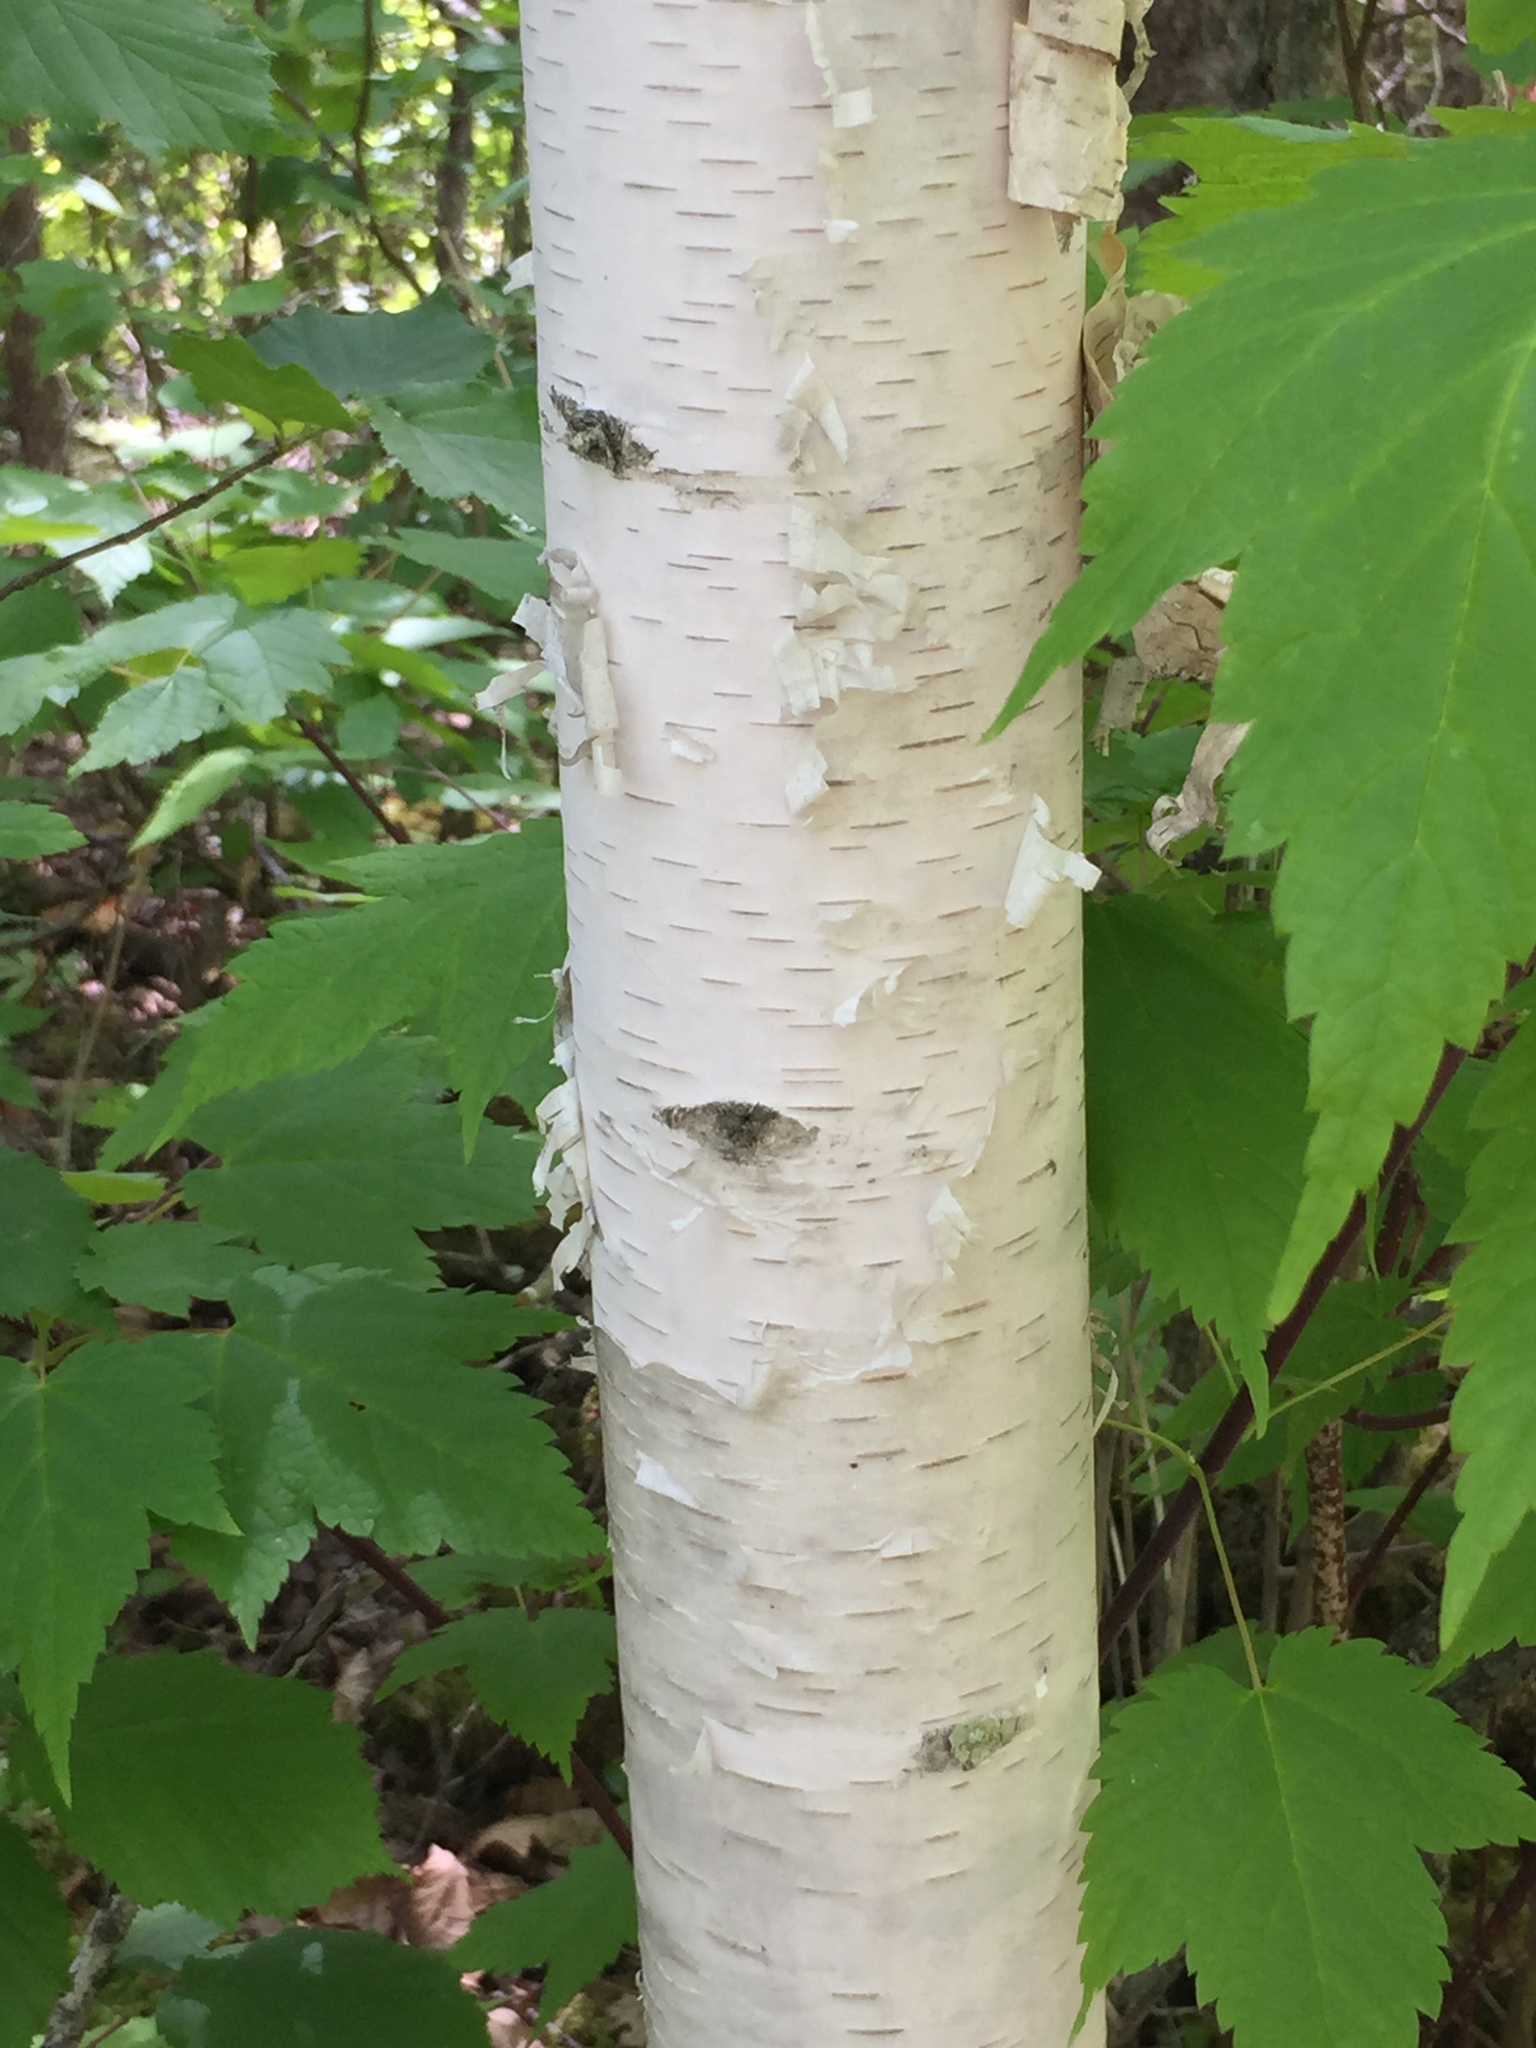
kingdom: Plantae
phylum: Tracheophyta
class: Magnoliopsida
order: Fagales
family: Betulaceae
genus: Betula
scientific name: Betula papyrifera
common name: Paper birch
